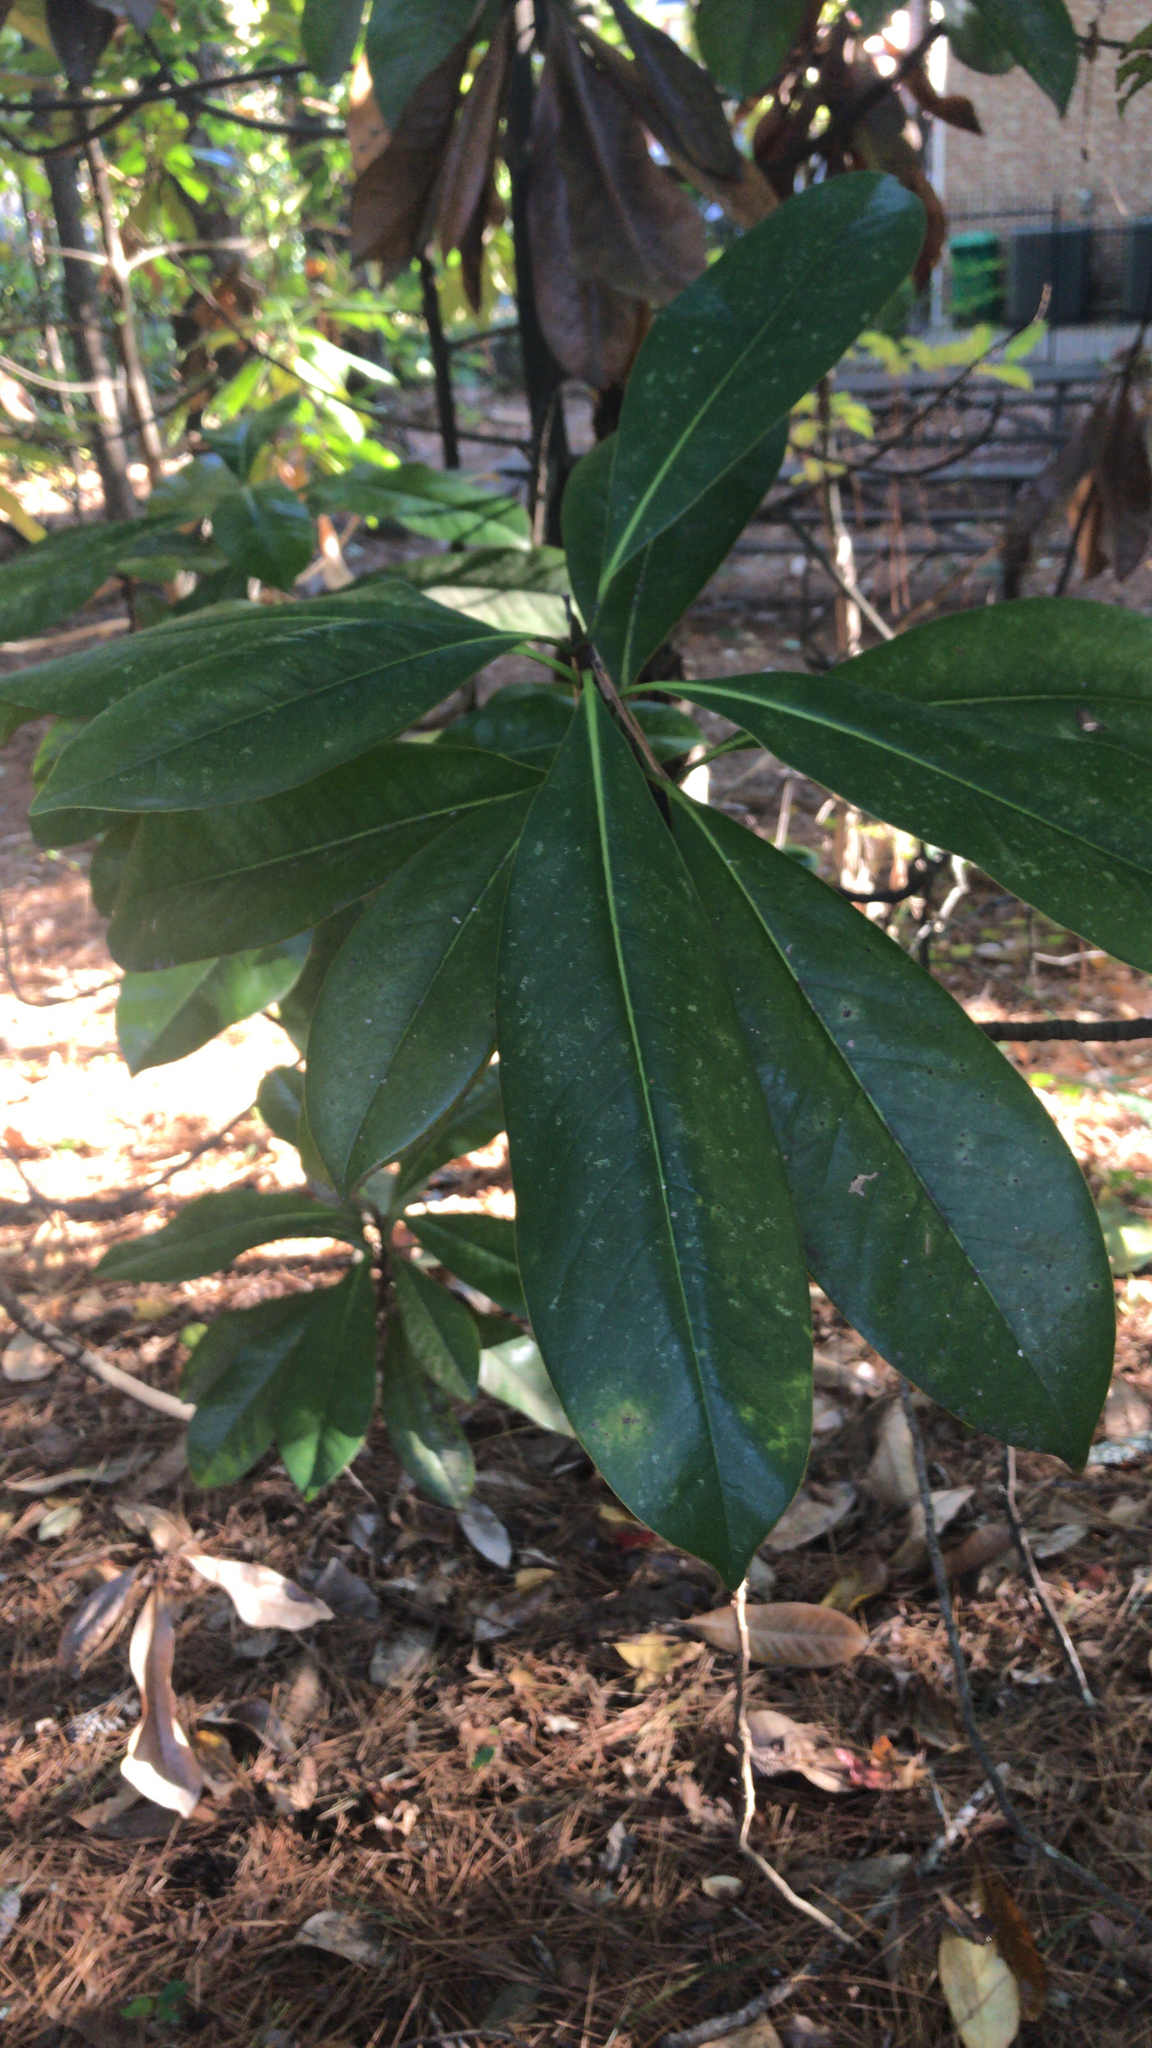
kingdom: Plantae
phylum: Tracheophyta
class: Magnoliopsida
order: Magnoliales
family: Magnoliaceae
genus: Magnolia
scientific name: Magnolia grandiflora
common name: Southern magnolia
